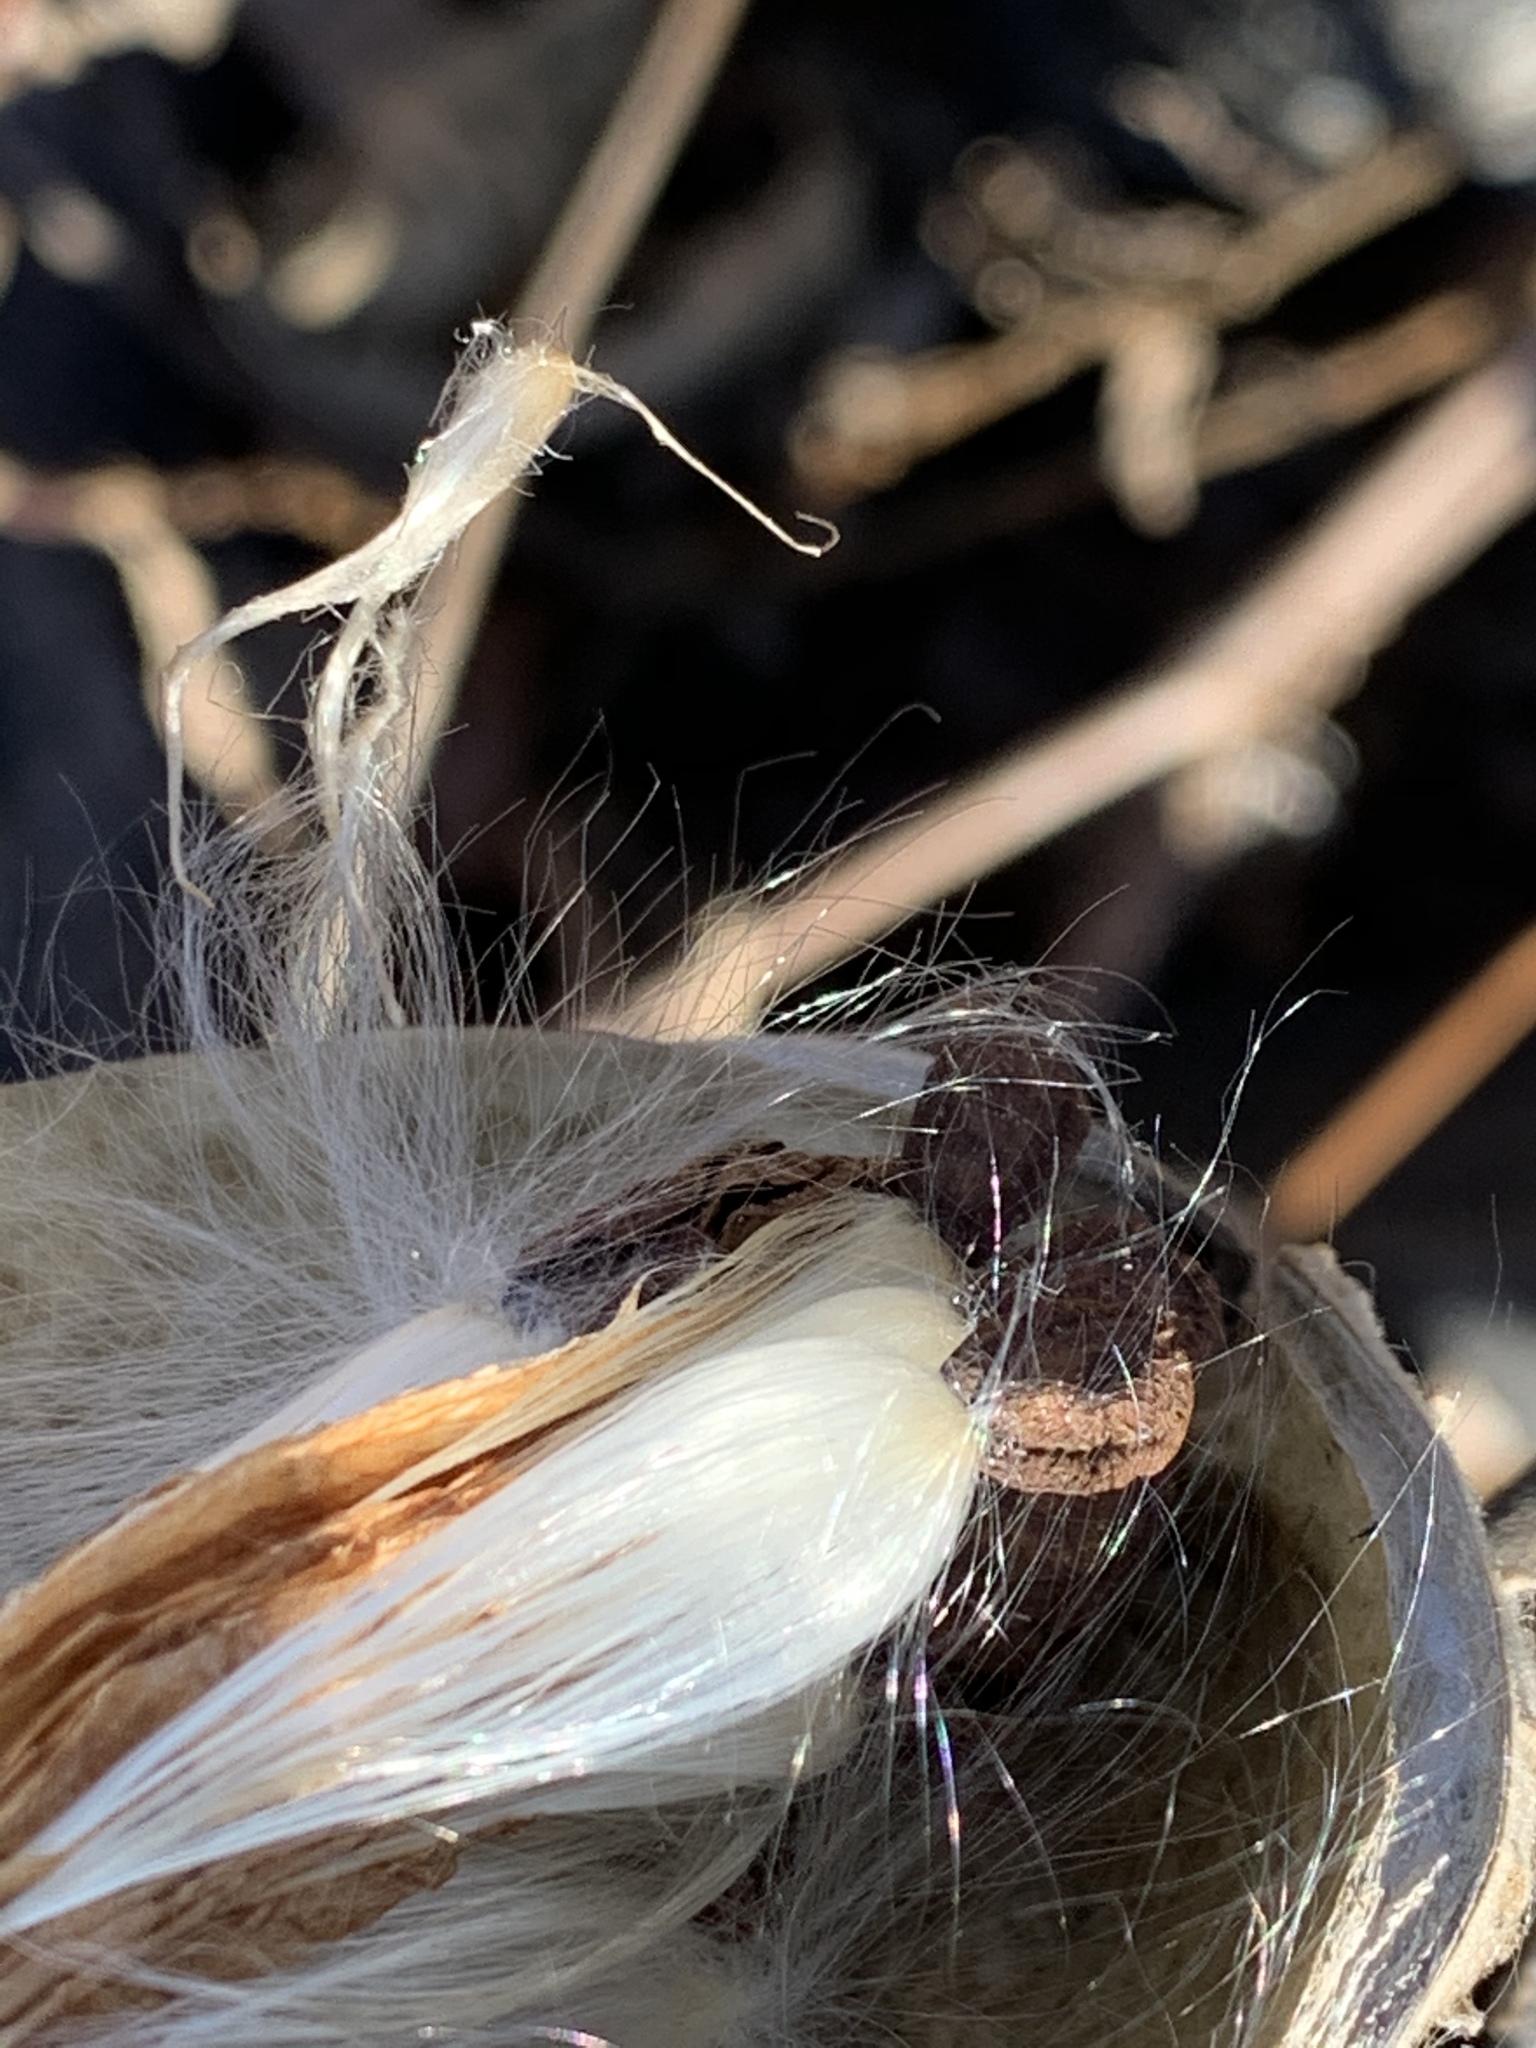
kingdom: Plantae
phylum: Tracheophyta
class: Magnoliopsida
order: Gentianales
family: Apocynaceae
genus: Asclepias
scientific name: Asclepias syriaca
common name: Common milkweed
